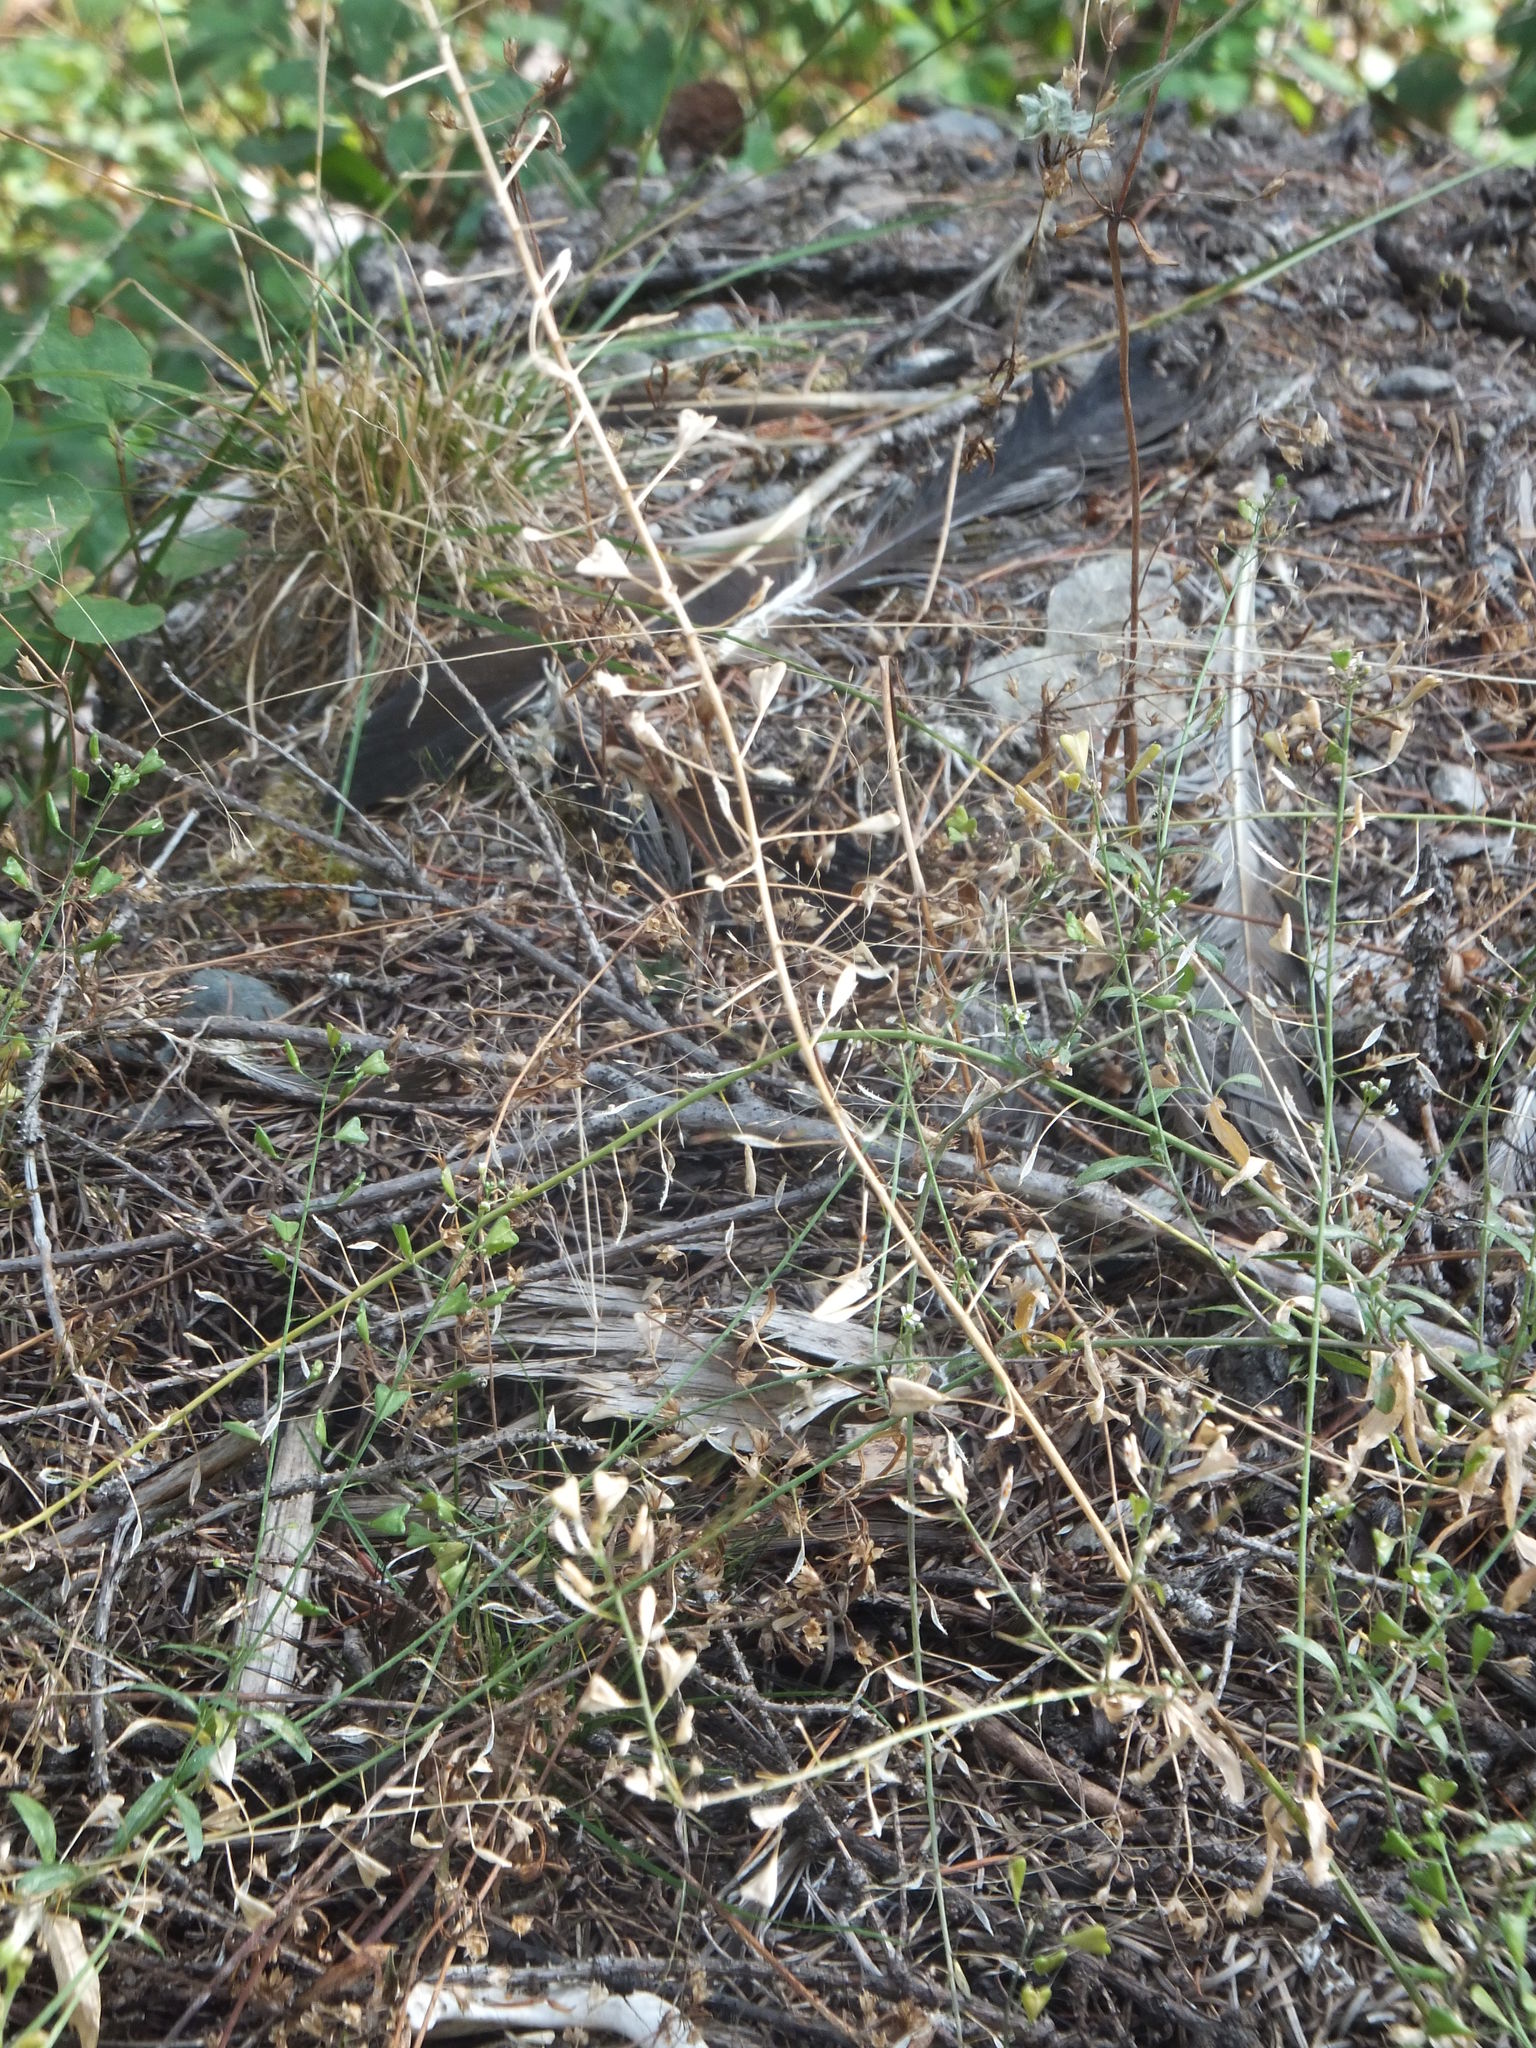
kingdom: Plantae
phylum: Tracheophyta
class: Magnoliopsida
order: Brassicales
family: Brassicaceae
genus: Capsella
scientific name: Capsella bursa-pastoris
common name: Shepherd's purse
